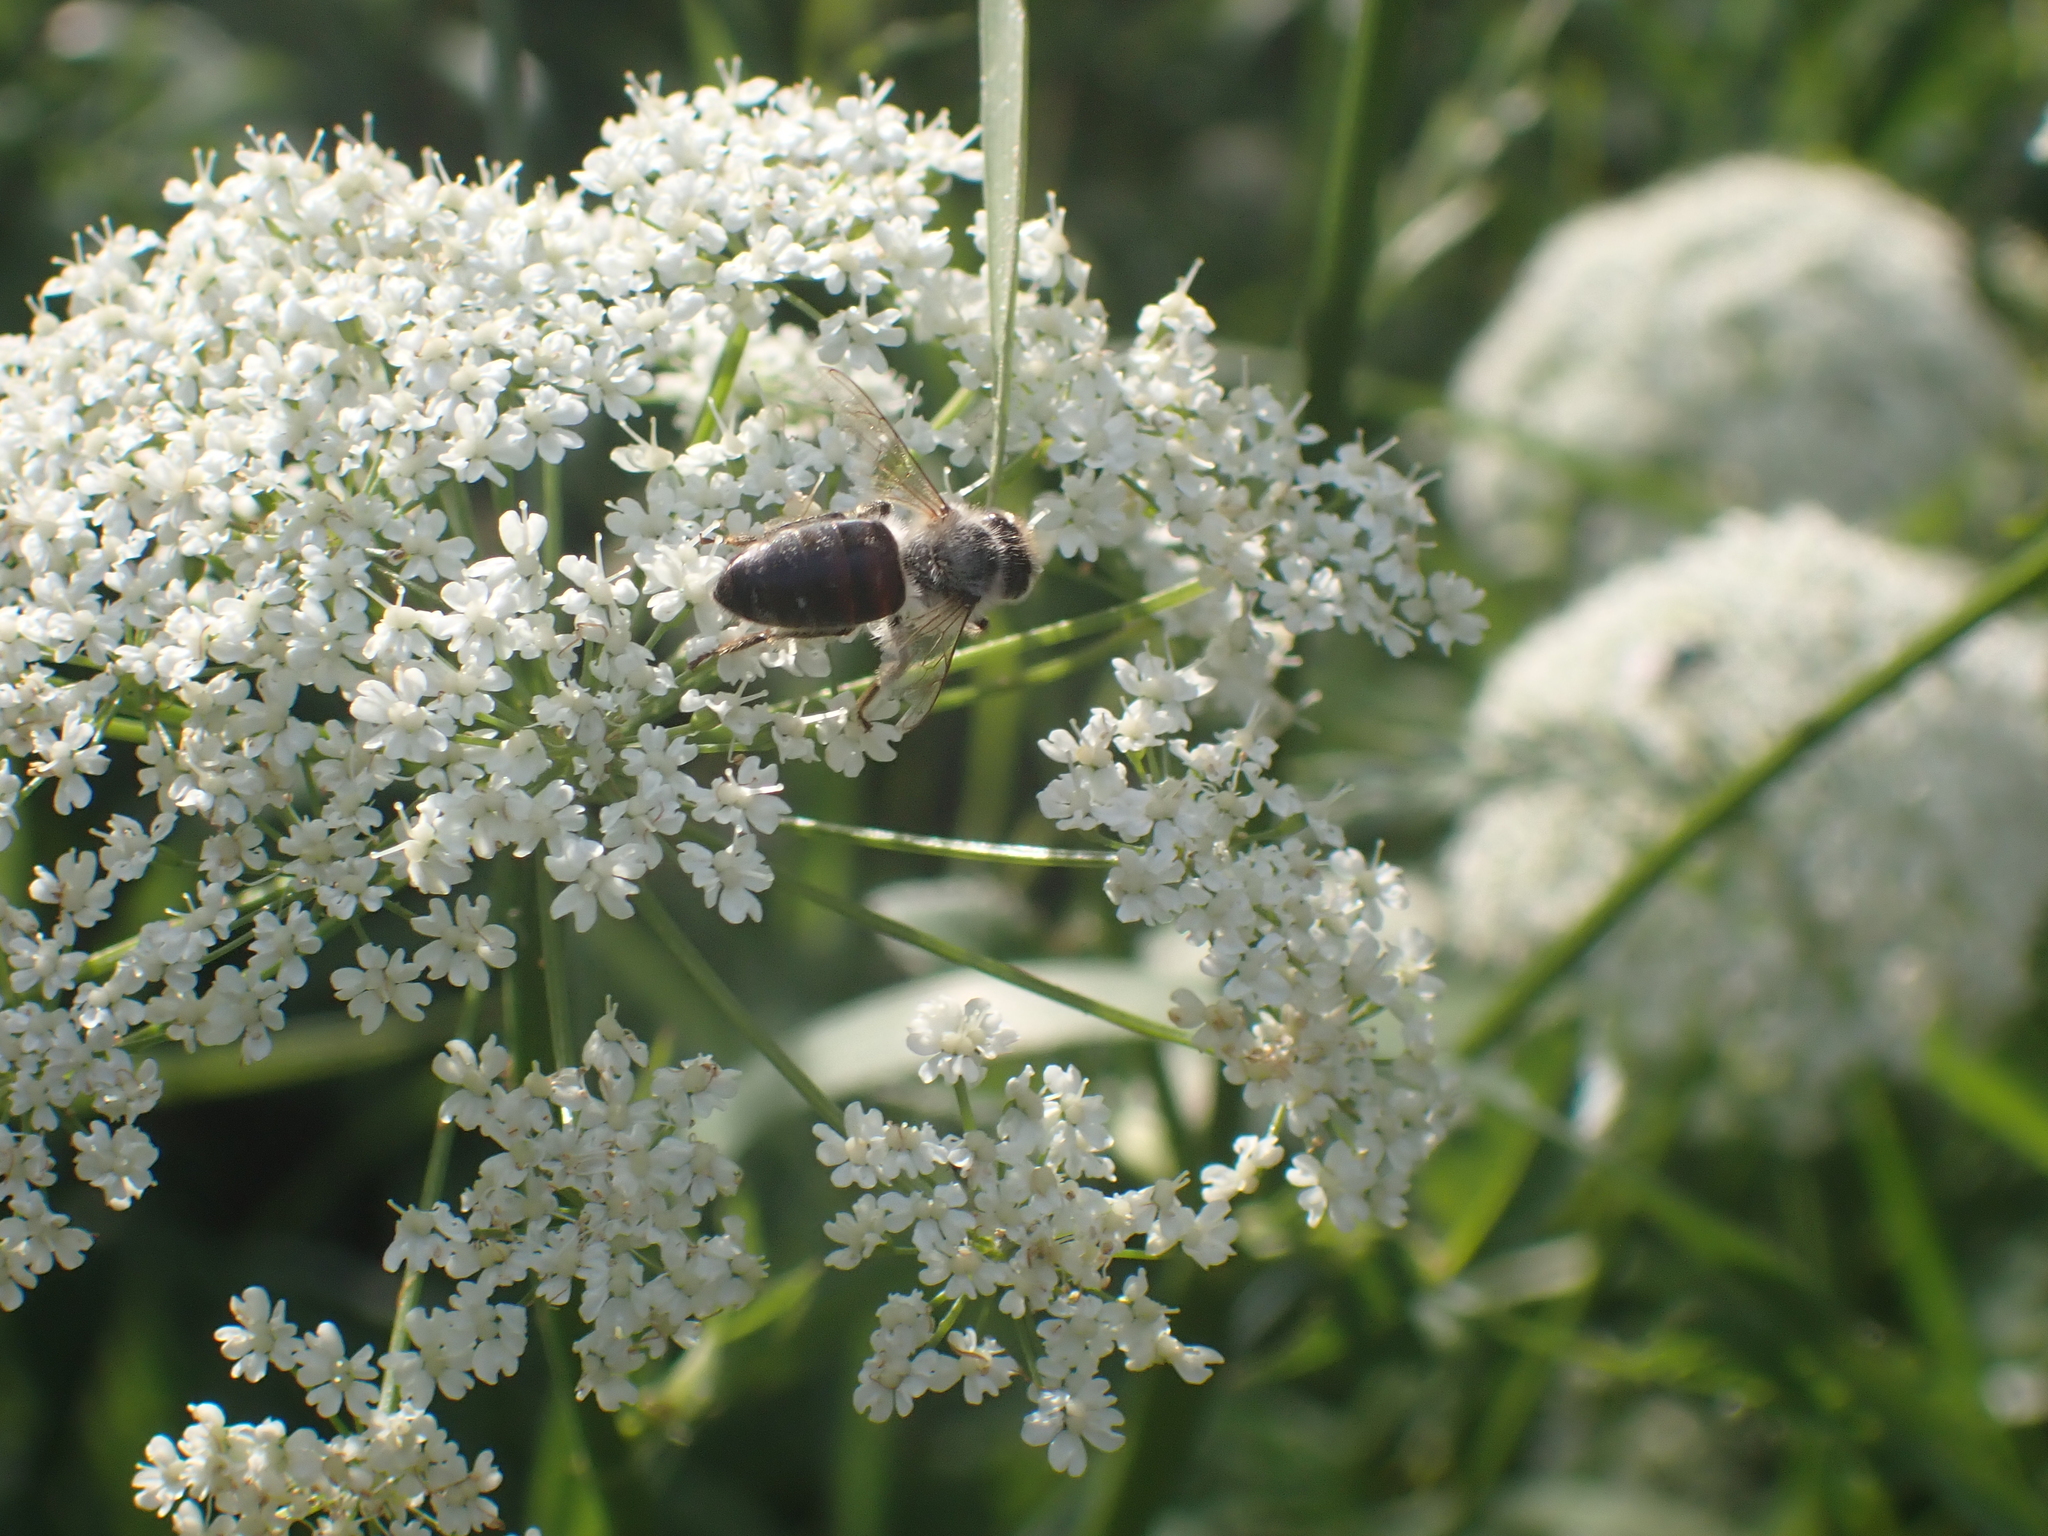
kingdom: Animalia
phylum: Arthropoda
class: Insecta
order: Hymenoptera
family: Apidae
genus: Apis
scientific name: Apis mellifera
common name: Honey bee
